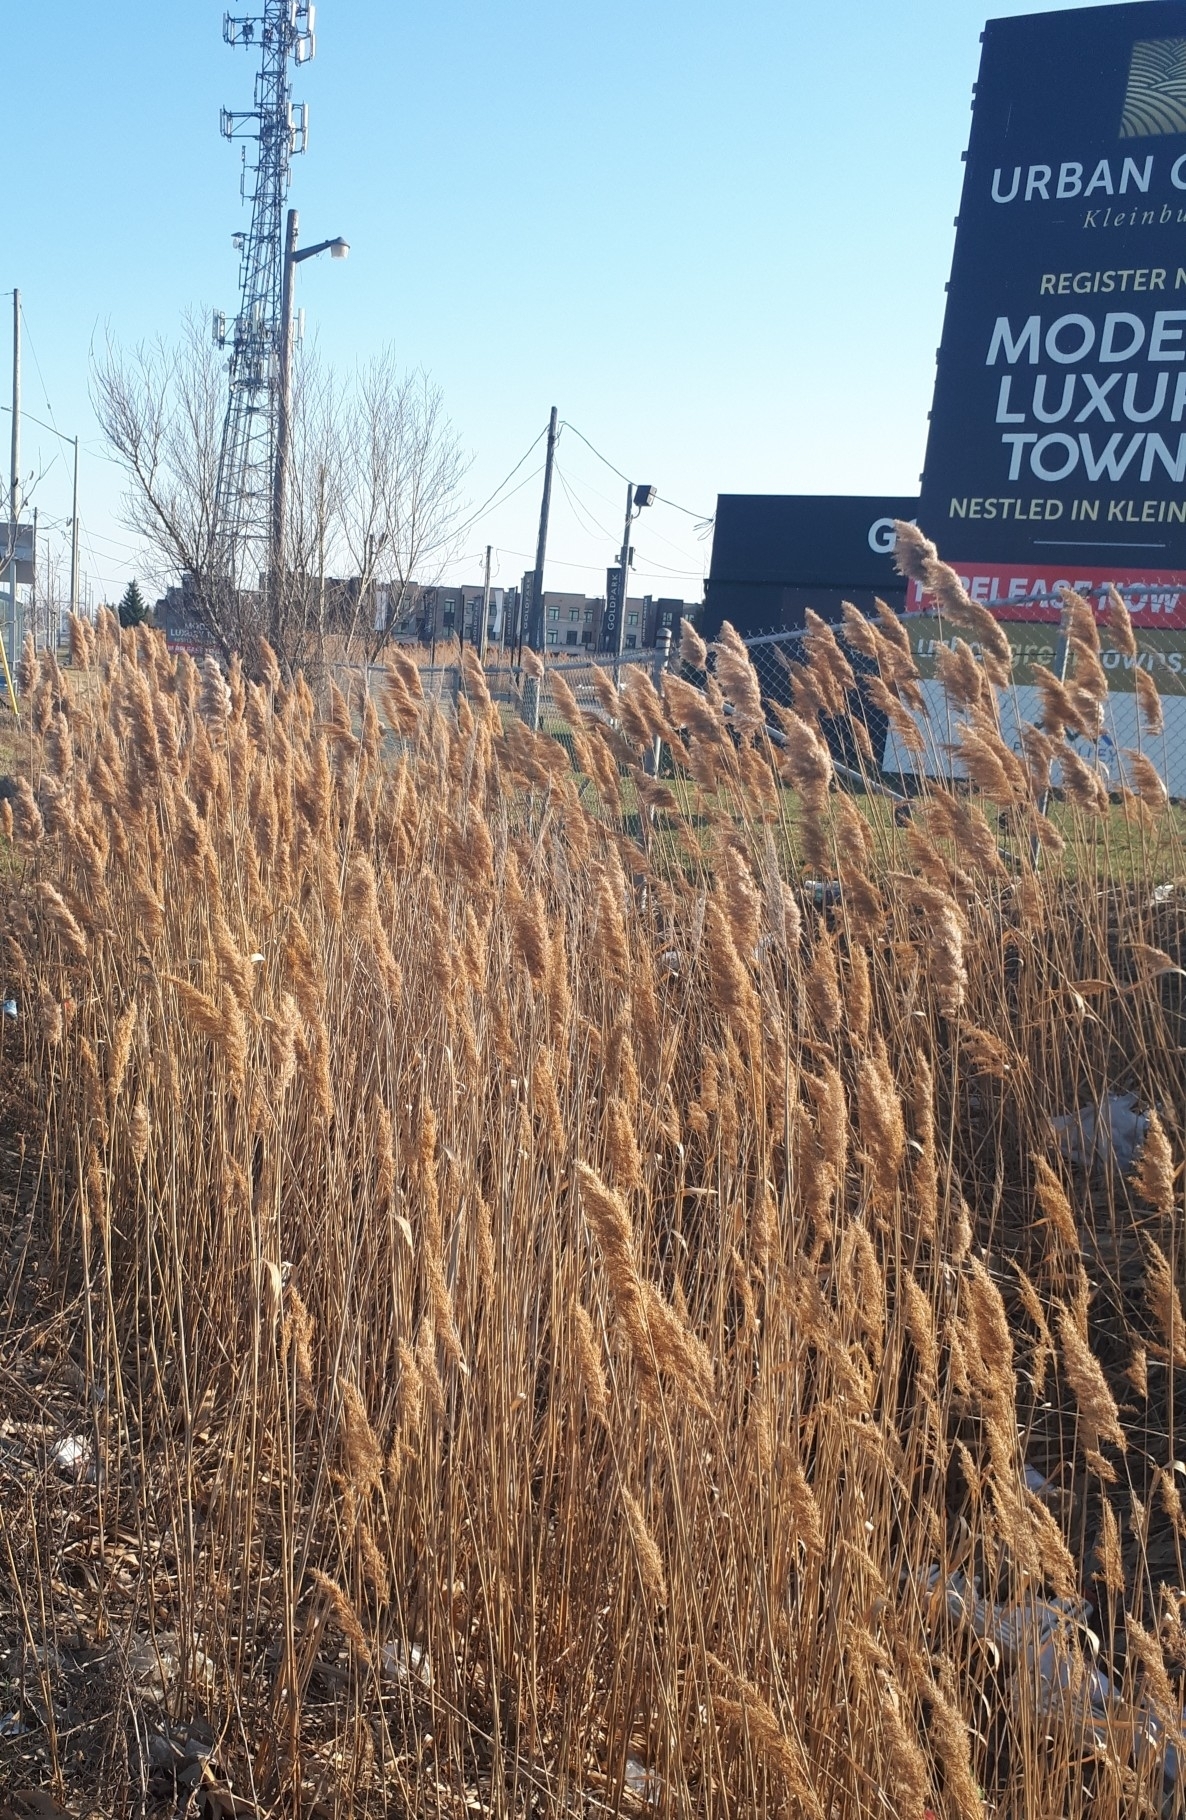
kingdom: Plantae
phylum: Tracheophyta
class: Liliopsida
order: Poales
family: Poaceae
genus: Phragmites
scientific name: Phragmites australis
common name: Common reed
